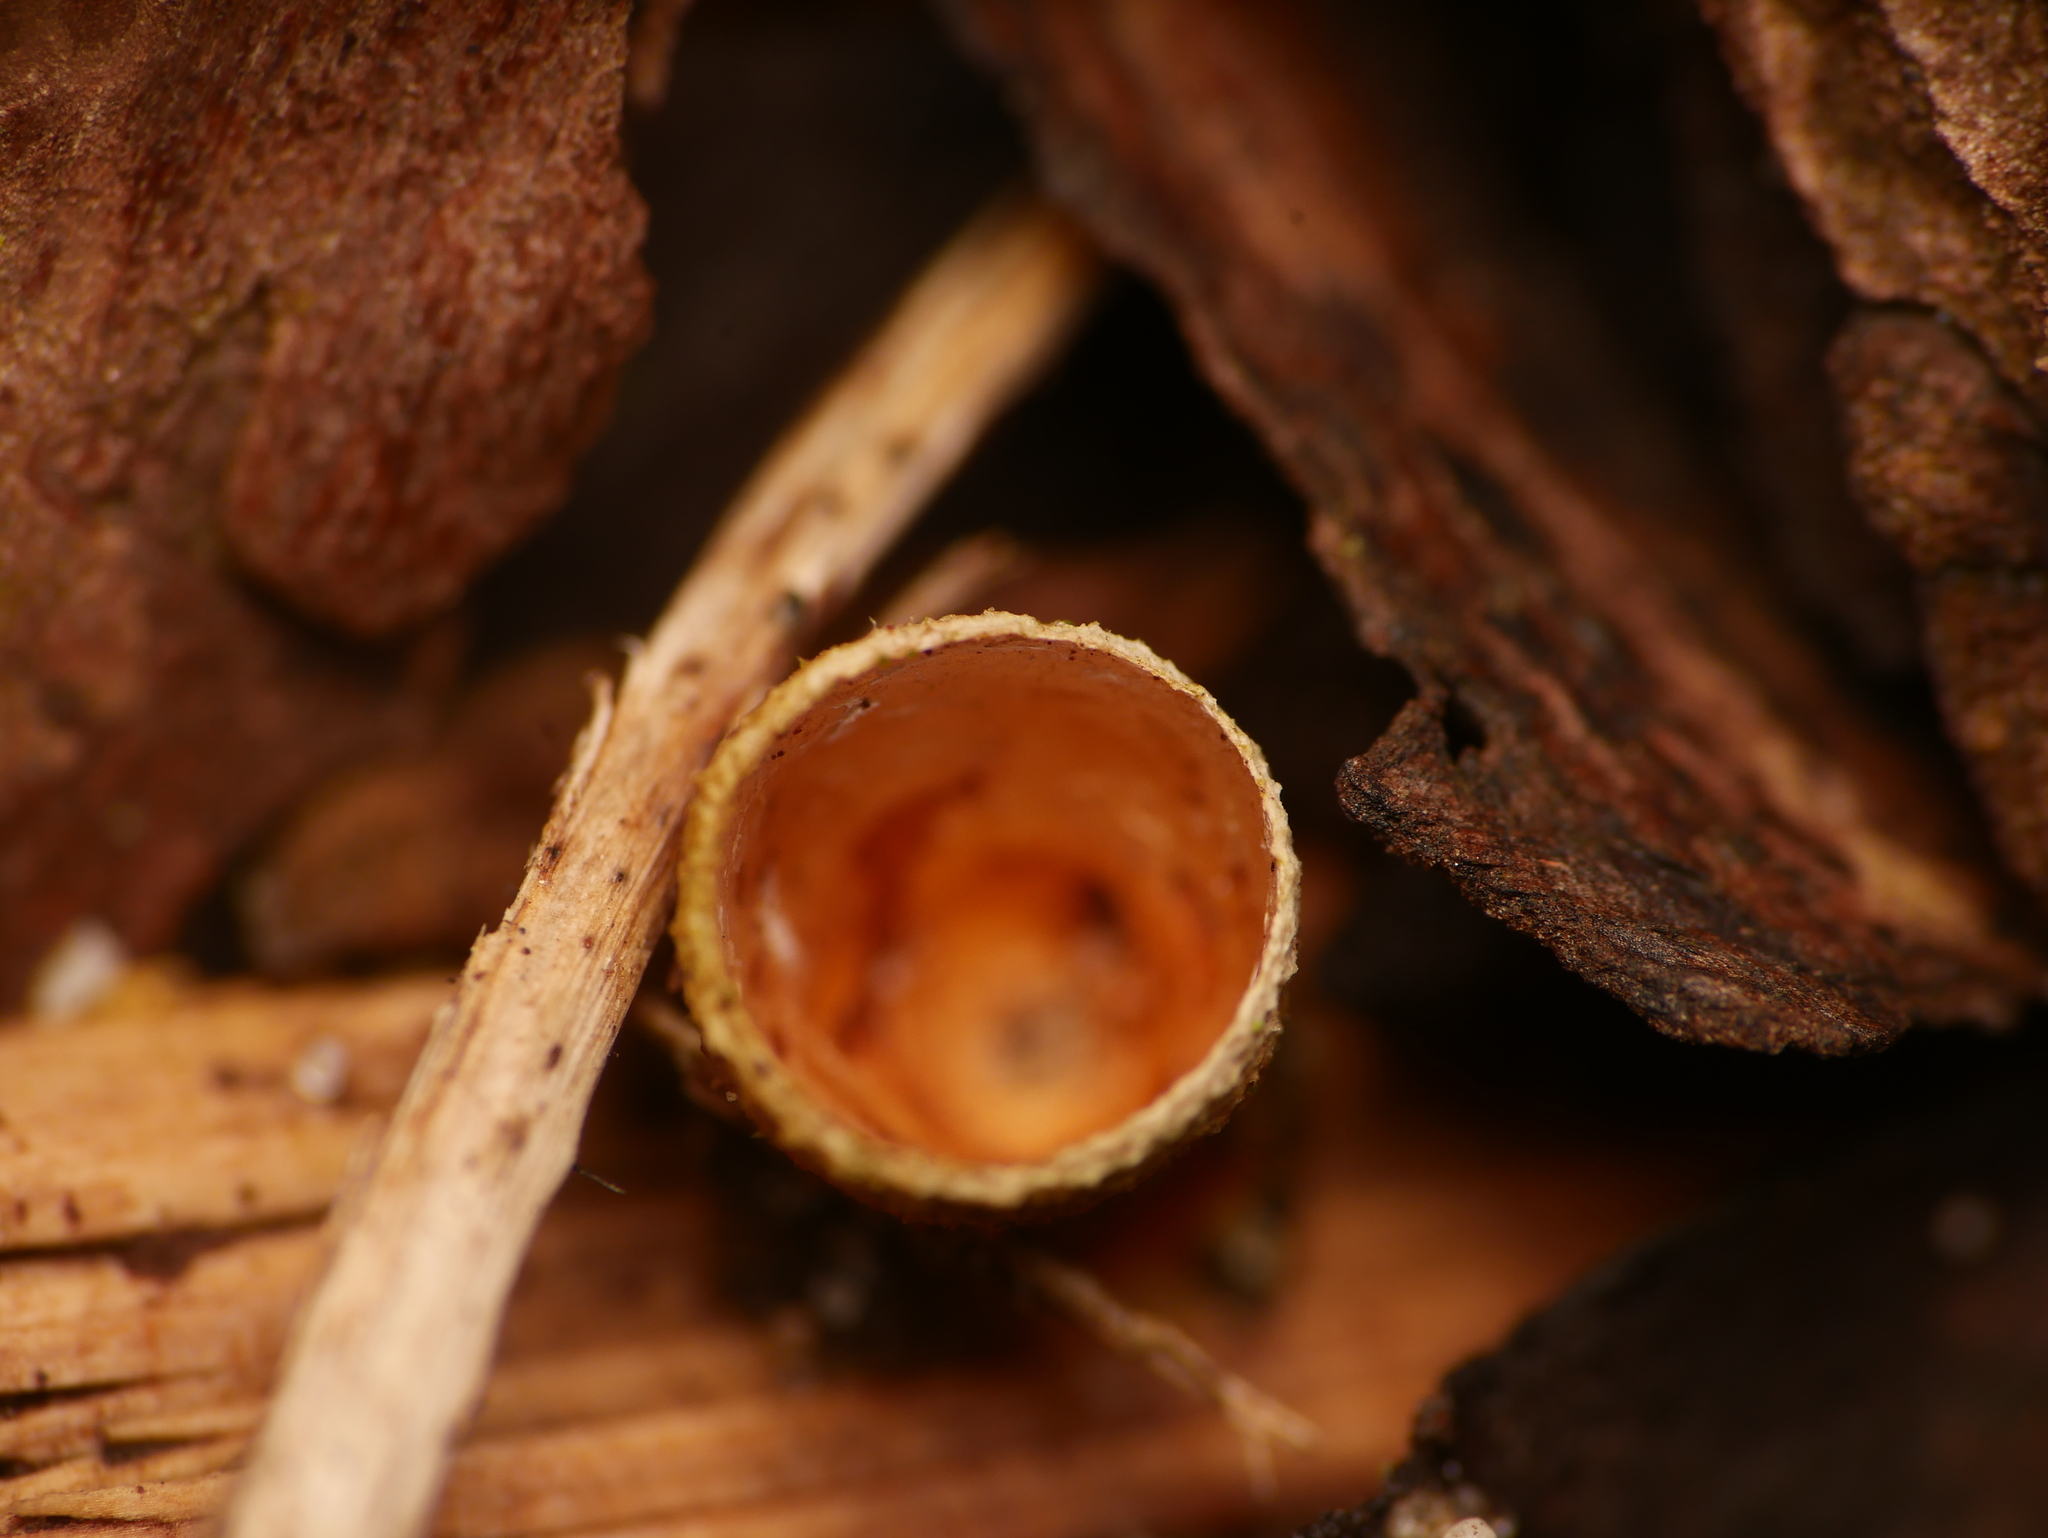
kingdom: Fungi
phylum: Basidiomycota
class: Agaricomycetes
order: Agaricales
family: Nidulariaceae
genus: Crucibulum
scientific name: Crucibulum laeve
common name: Common bird's nest
